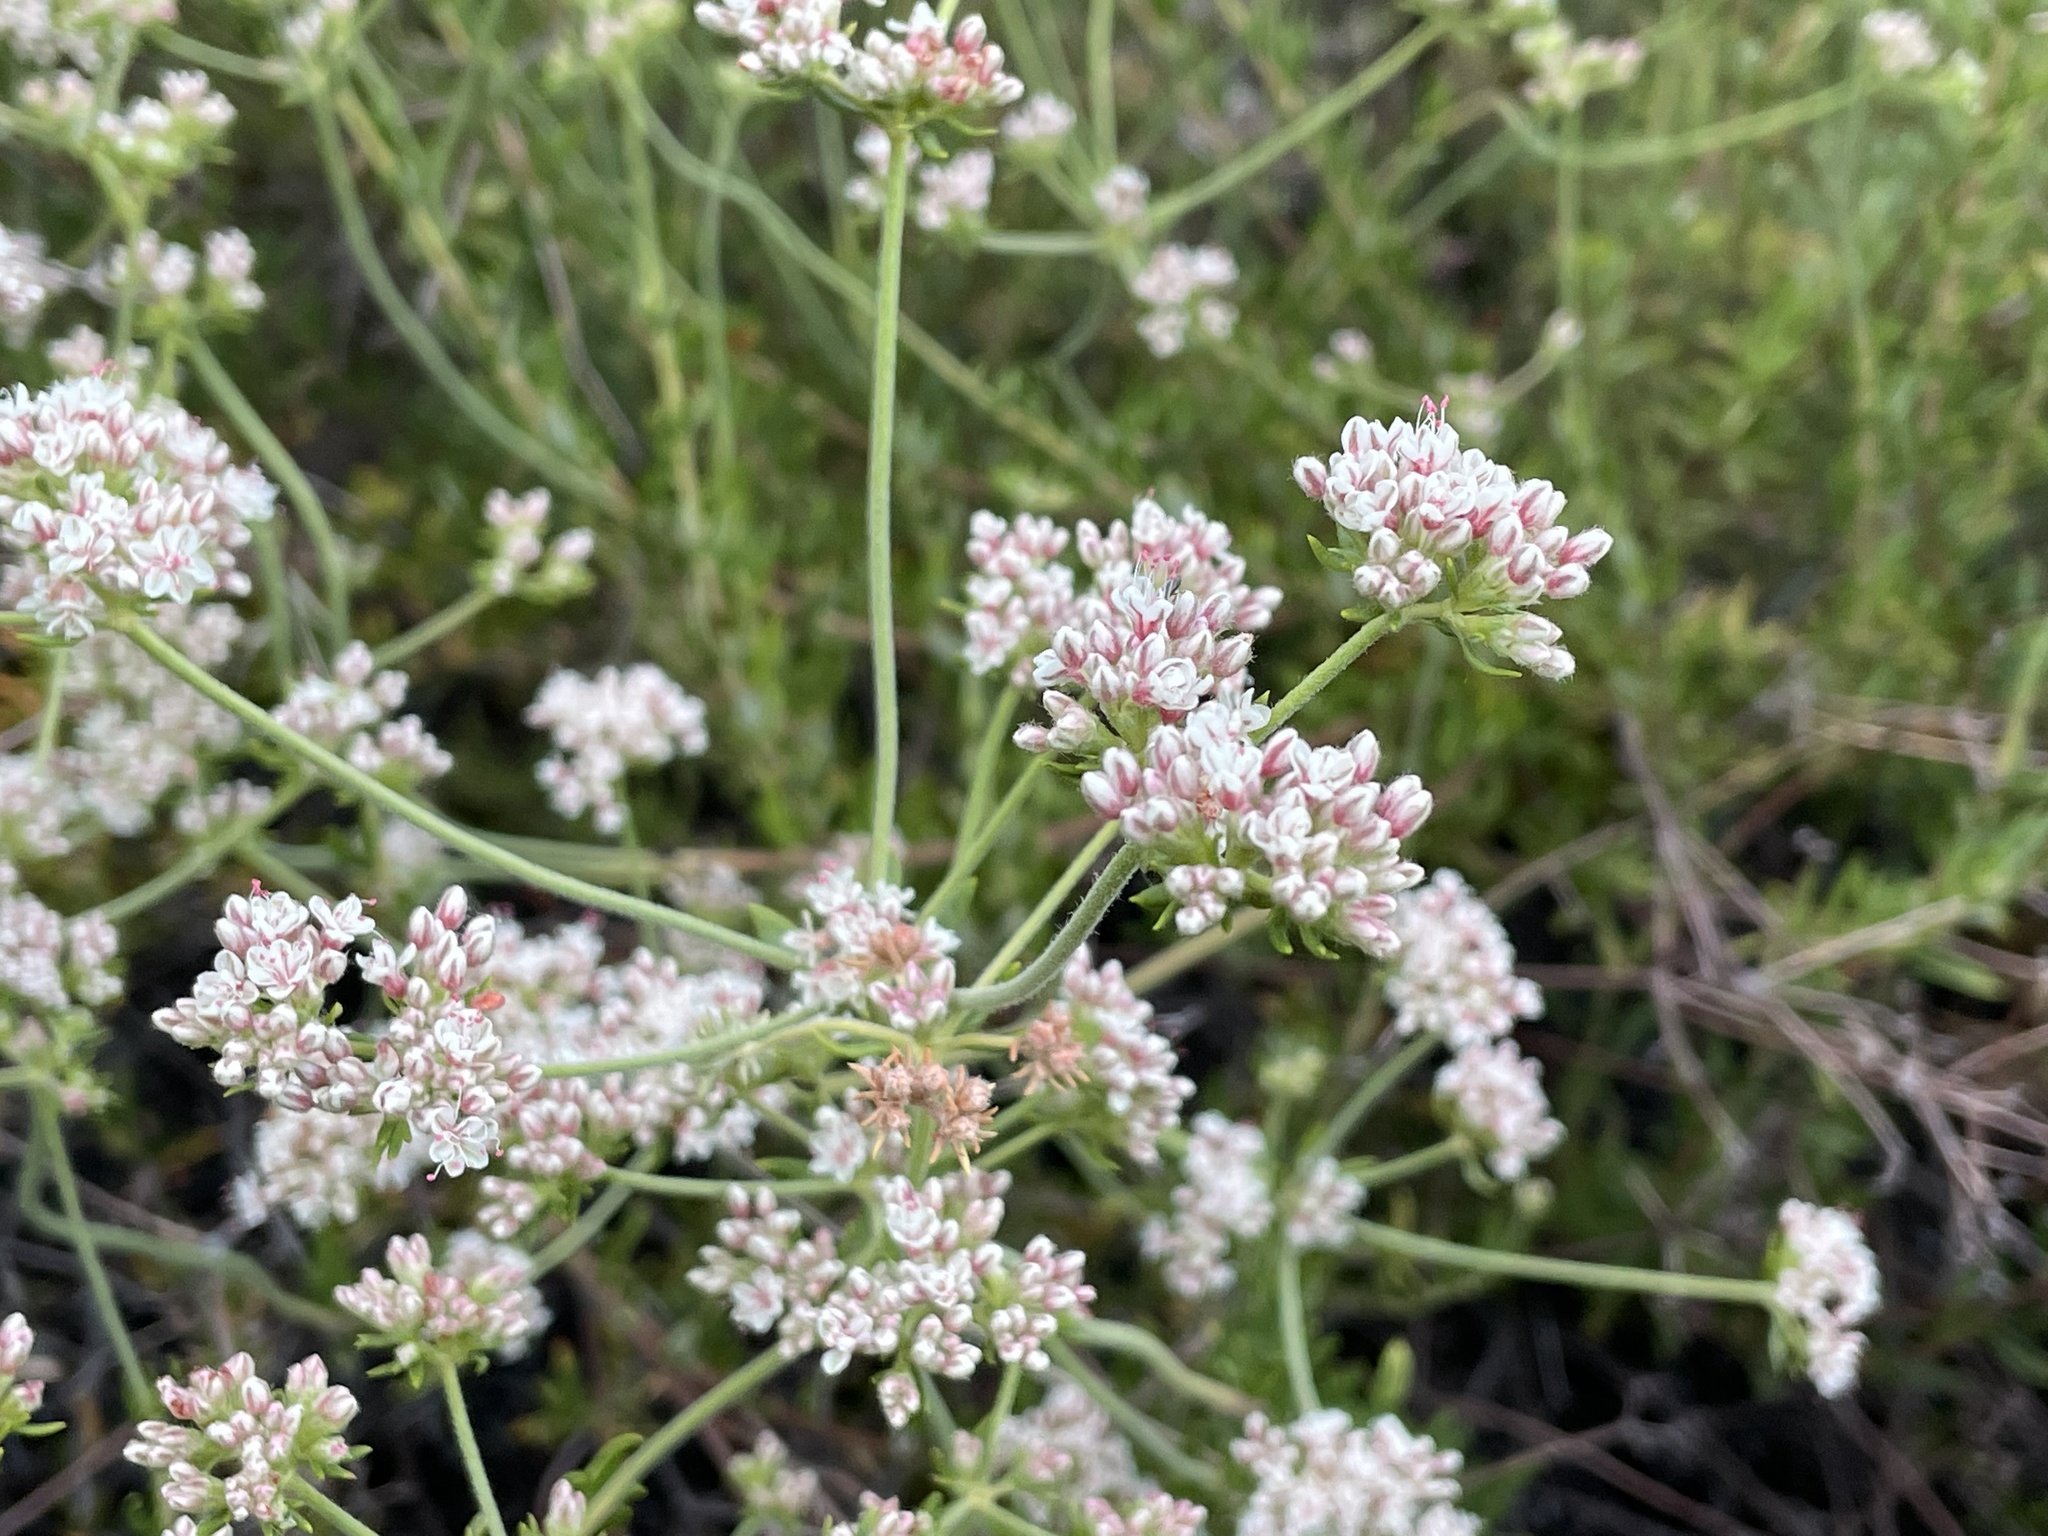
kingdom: Plantae
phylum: Tracheophyta
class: Magnoliopsida
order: Caryophyllales
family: Polygonaceae
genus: Eriogonum
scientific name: Eriogonum fasciculatum
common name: California wild buckwheat
